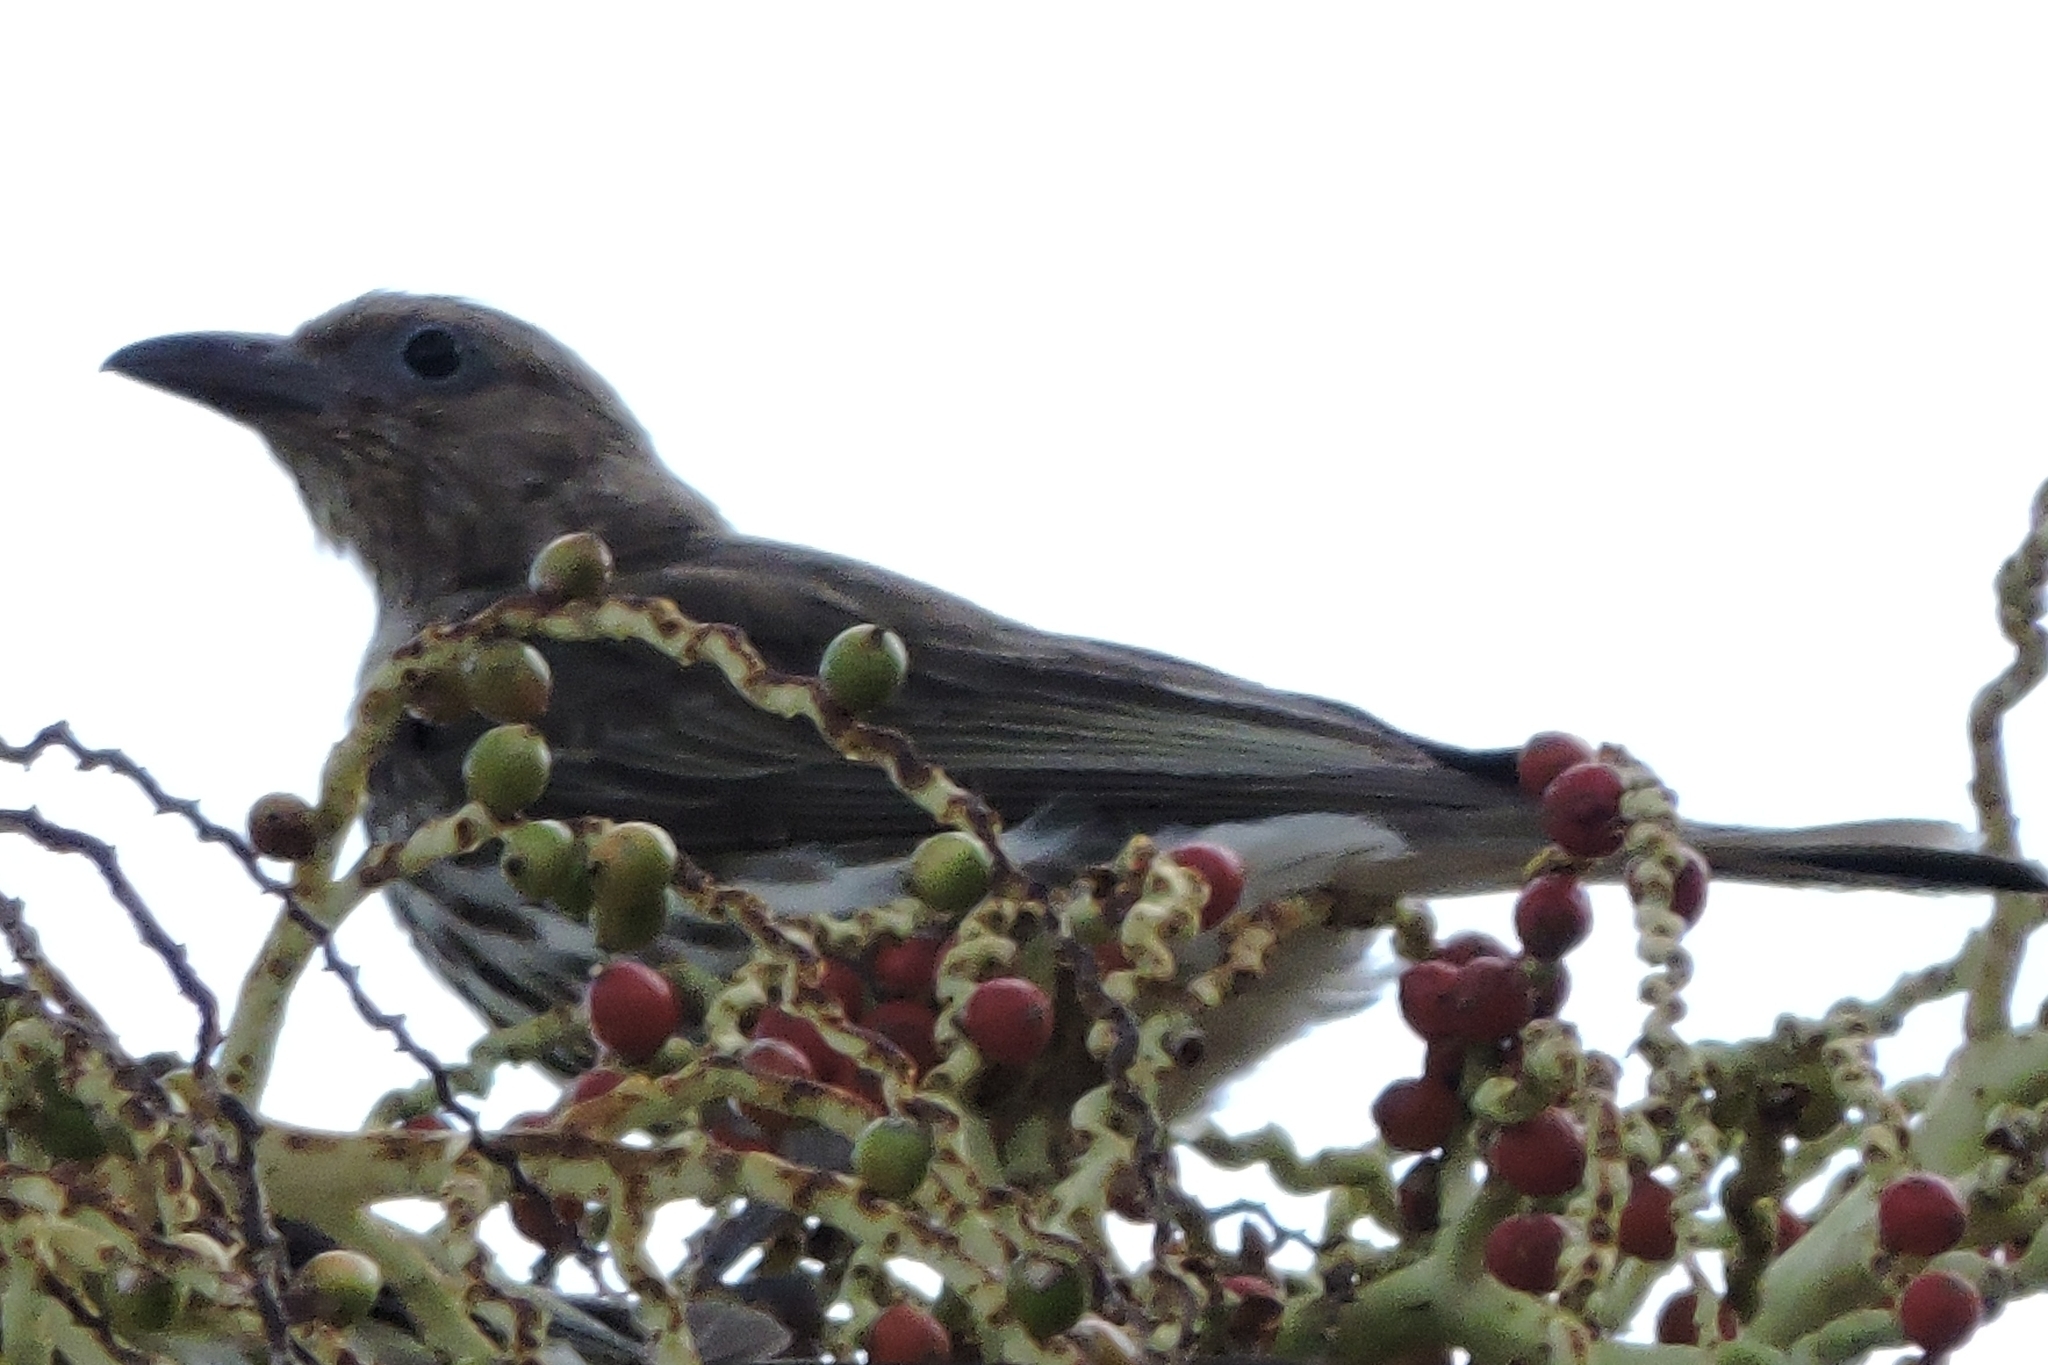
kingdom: Animalia
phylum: Chordata
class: Aves
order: Passeriformes
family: Oriolidae
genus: Sphecotheres
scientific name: Sphecotheres vieilloti
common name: Australasian figbird
